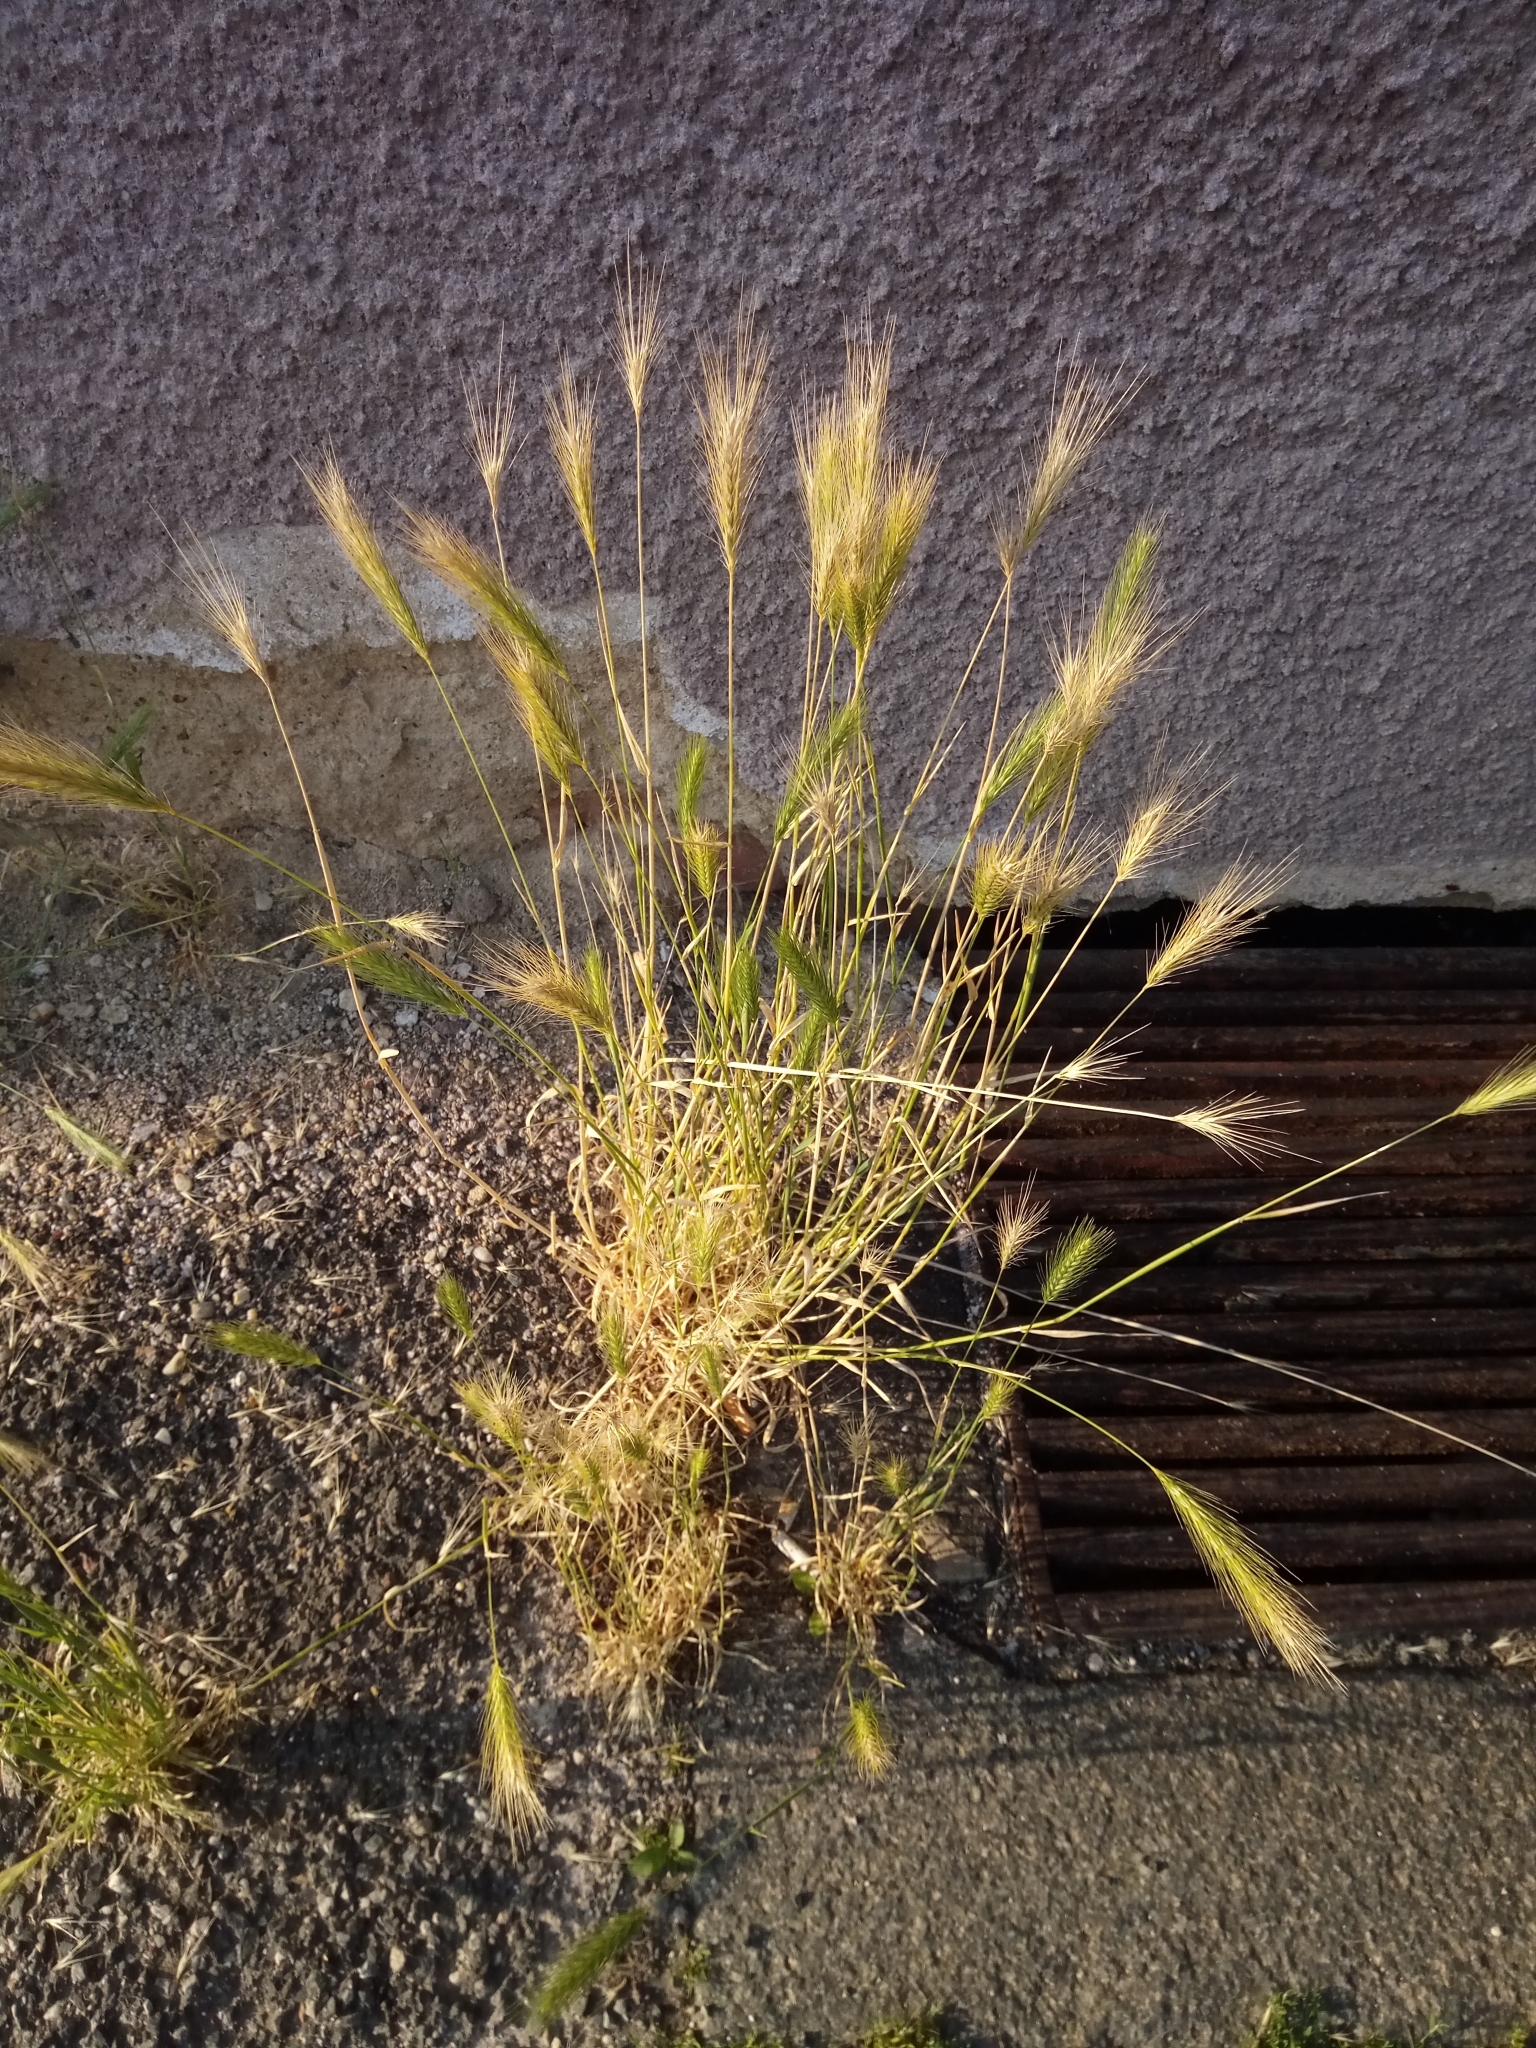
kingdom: Plantae
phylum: Tracheophyta
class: Liliopsida
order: Poales
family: Poaceae
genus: Hordeum
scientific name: Hordeum murinum
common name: Wall barley
